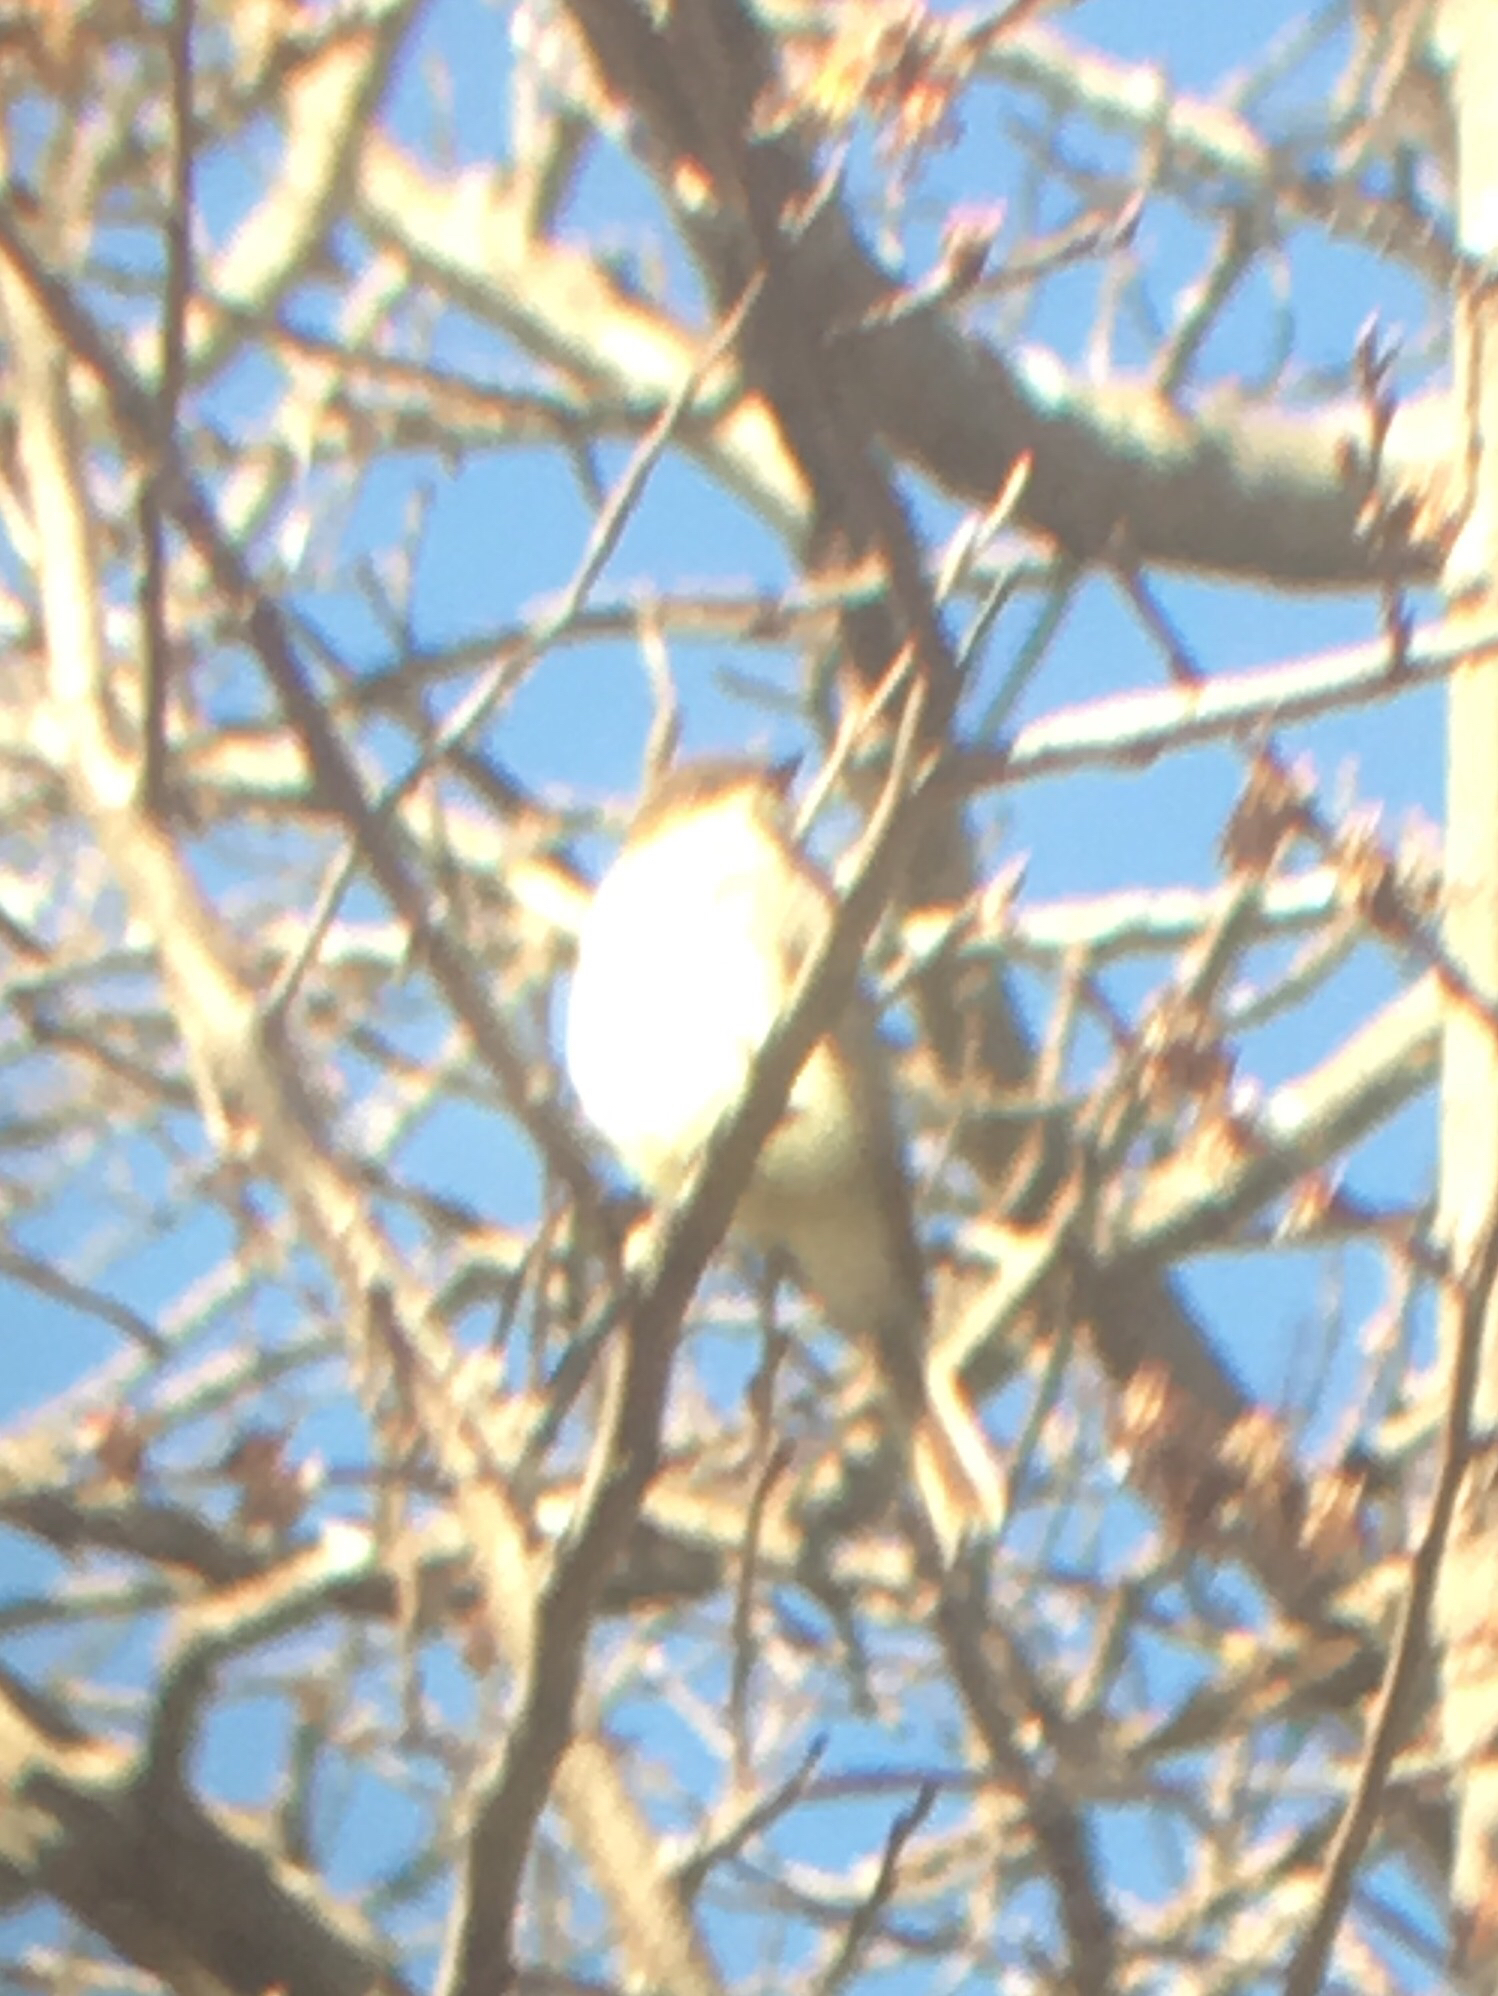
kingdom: Animalia
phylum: Chordata
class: Aves
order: Passeriformes
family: Tyrannidae
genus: Sayornis
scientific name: Sayornis phoebe
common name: Eastern phoebe
